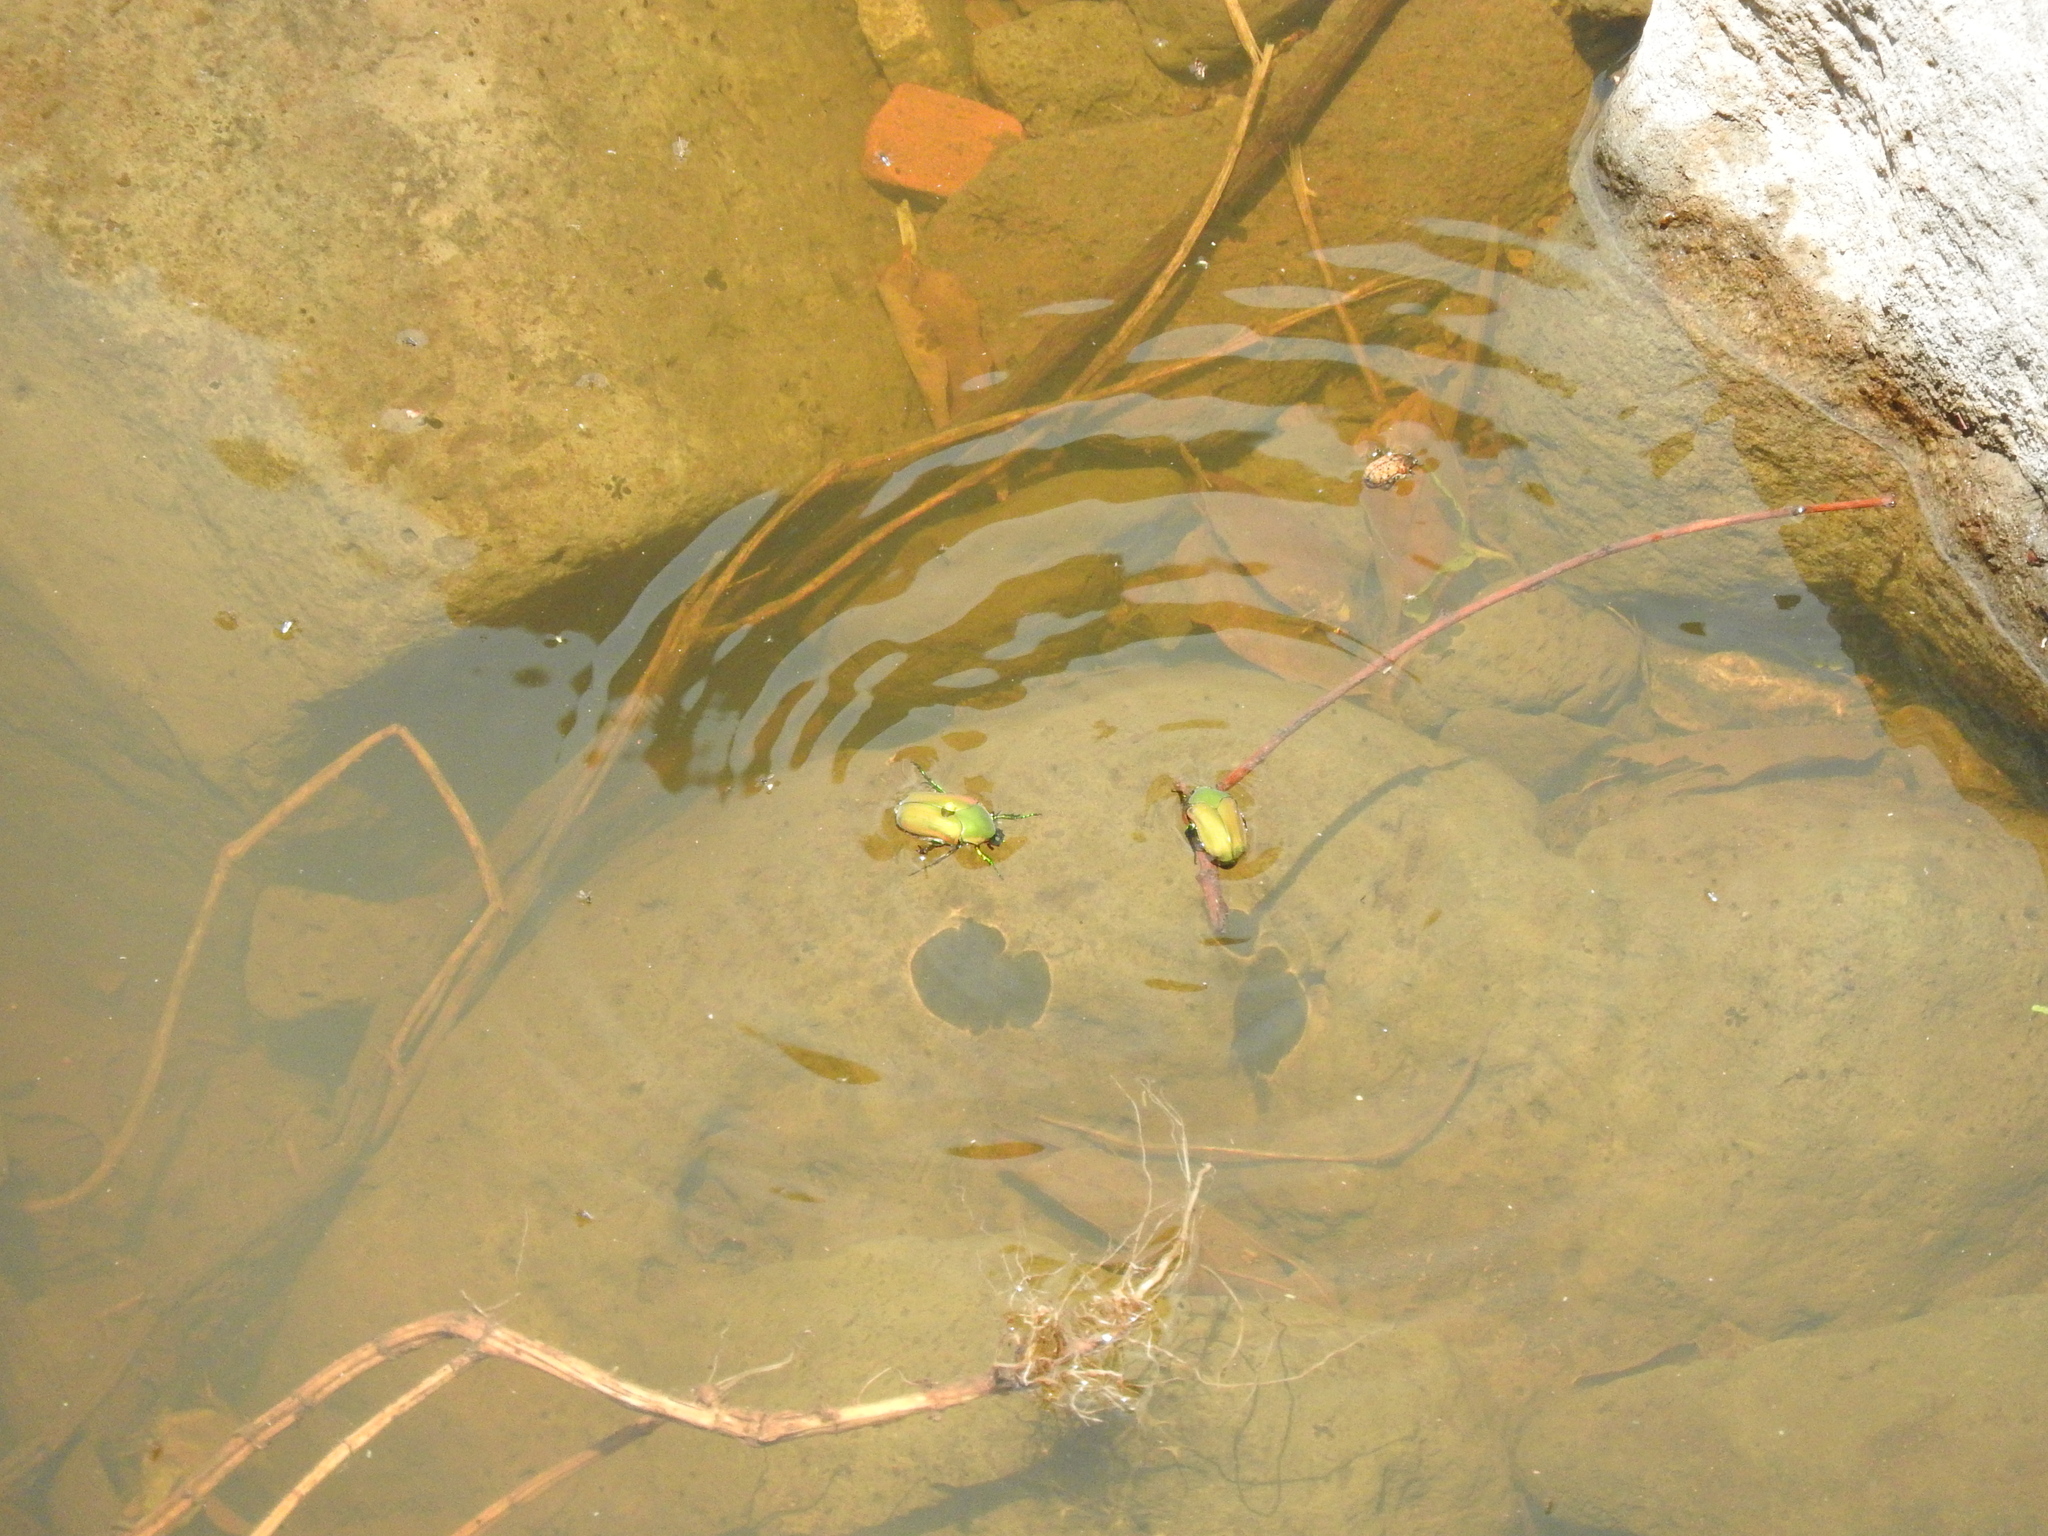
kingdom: Animalia
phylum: Arthropoda
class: Insecta
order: Coleoptera
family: Scarabaeidae
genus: Cotinis
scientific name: Cotinis mutabilis
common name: Figeater beetle
